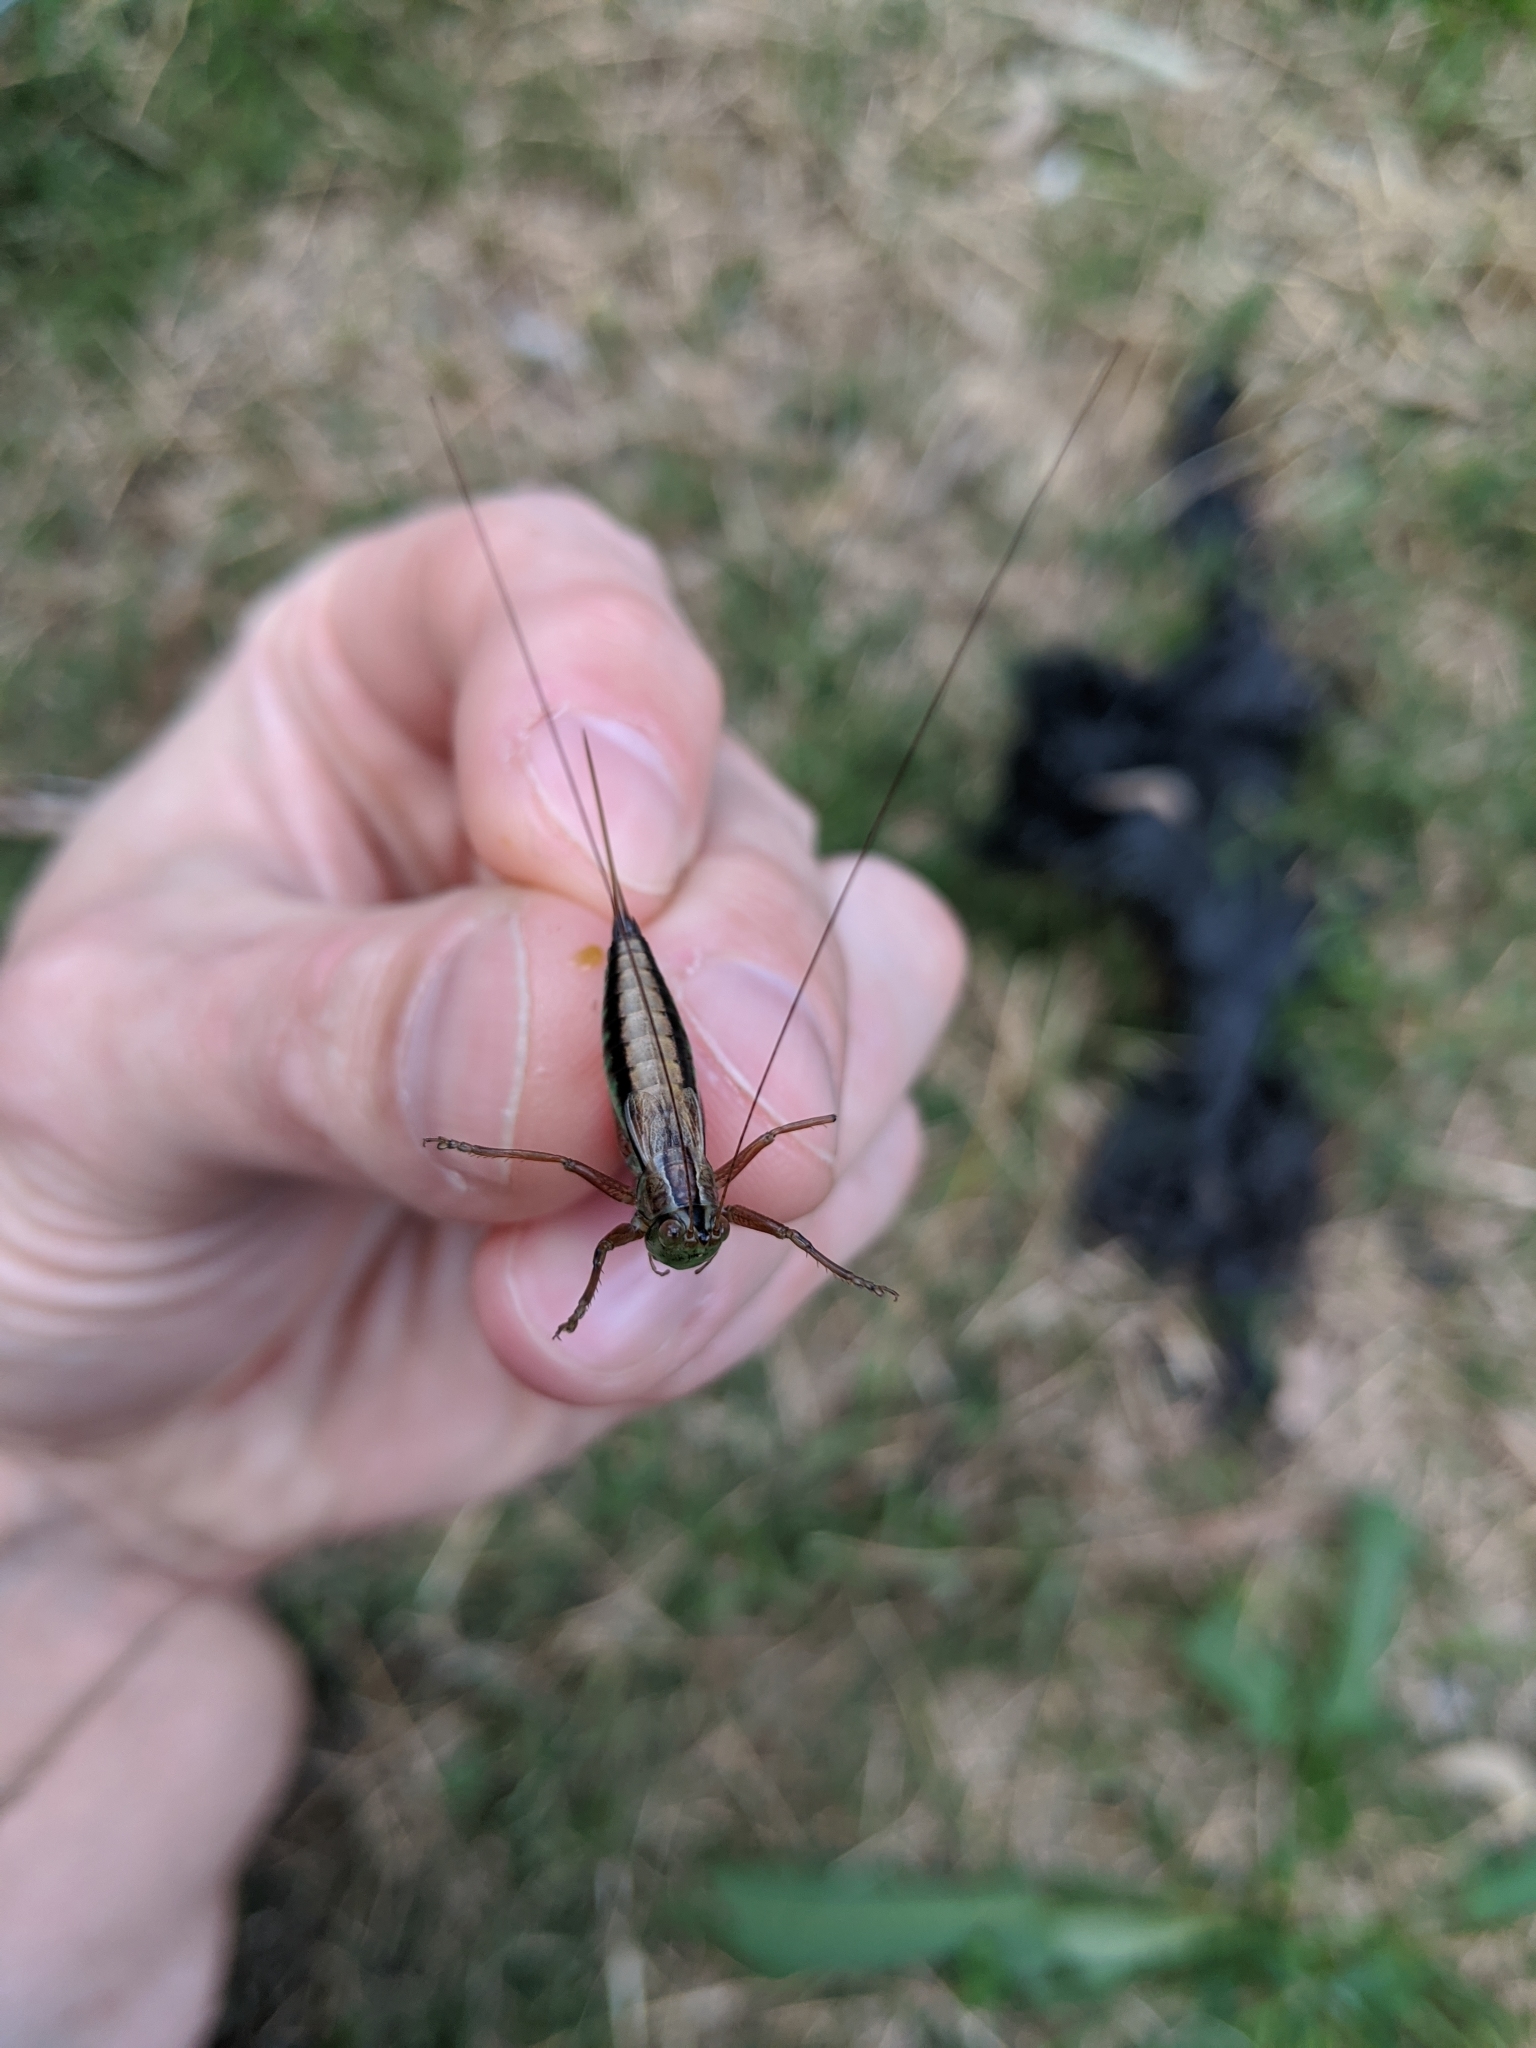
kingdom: Animalia
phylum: Arthropoda
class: Insecta
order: Orthoptera
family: Tettigoniidae
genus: Conocephalus
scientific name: Conocephalus semivittatus
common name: Blackish meadow katydid
